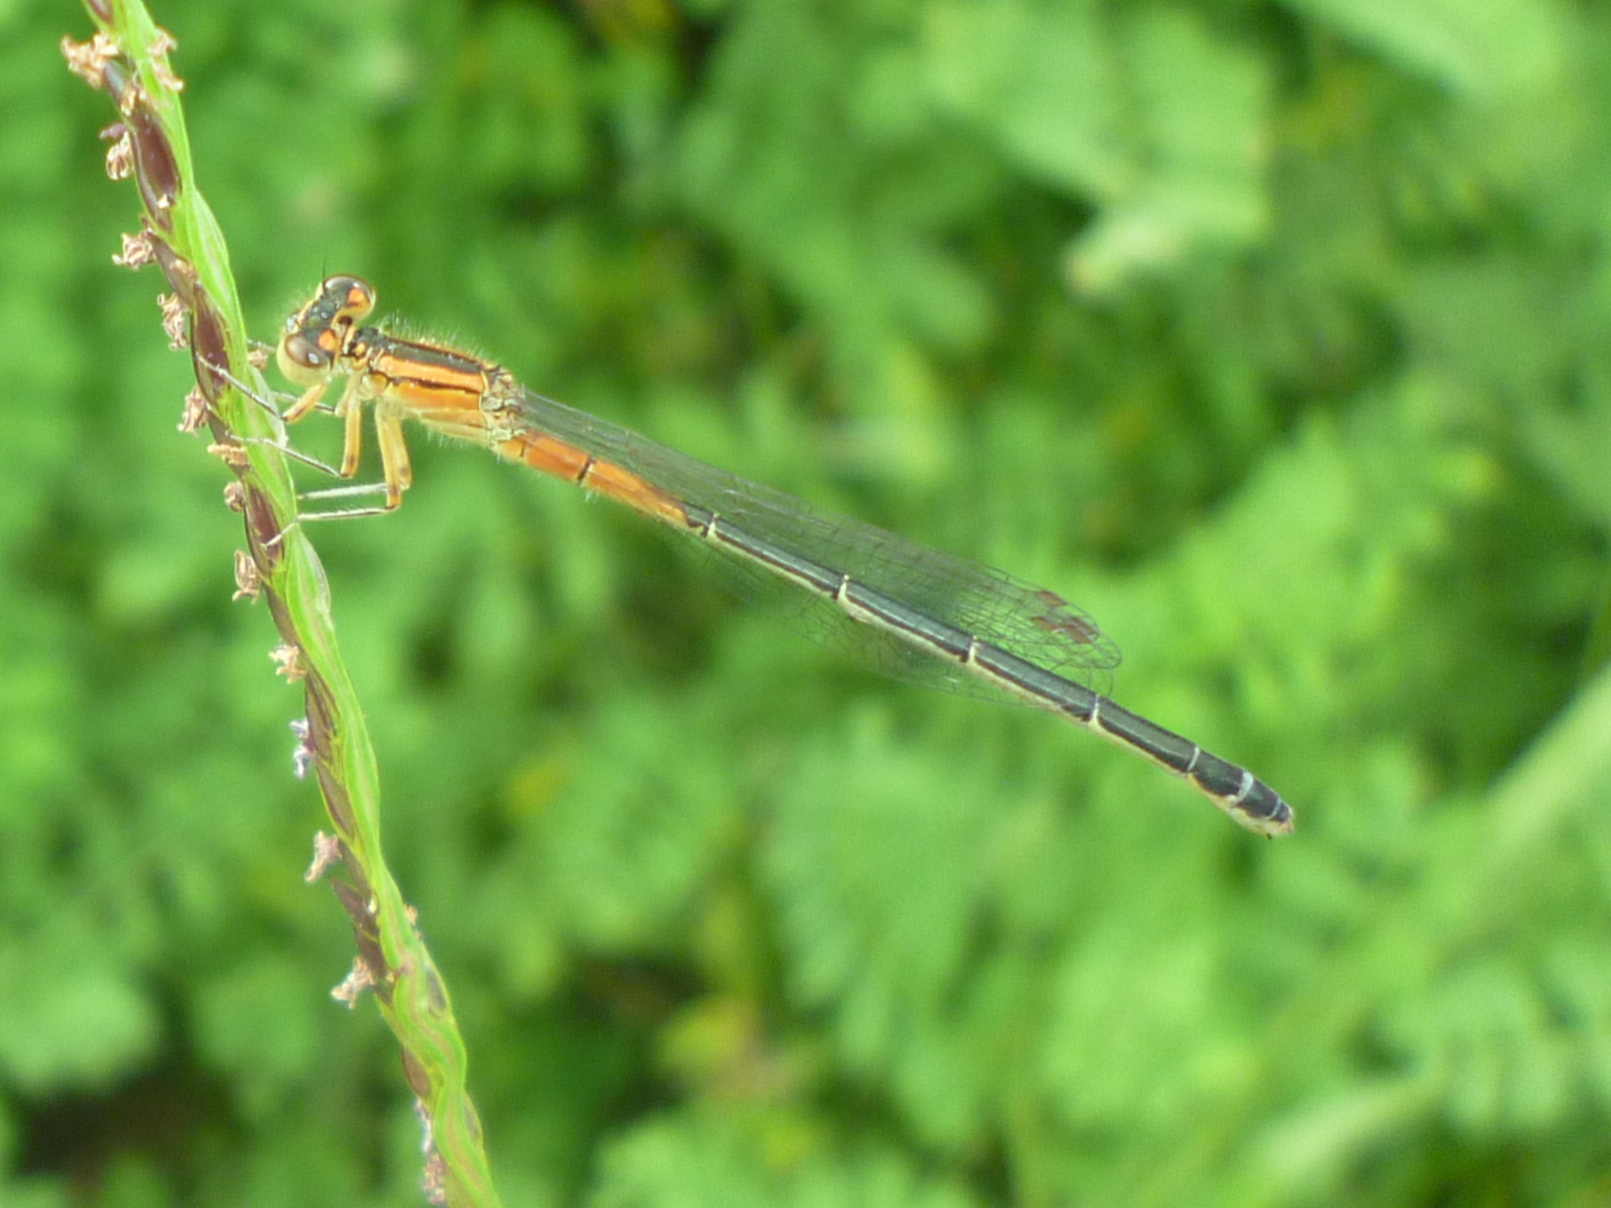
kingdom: Animalia
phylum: Arthropoda
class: Insecta
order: Odonata
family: Coenagrionidae
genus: Ischnura
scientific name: Ischnura verticalis
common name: Eastern forktail
